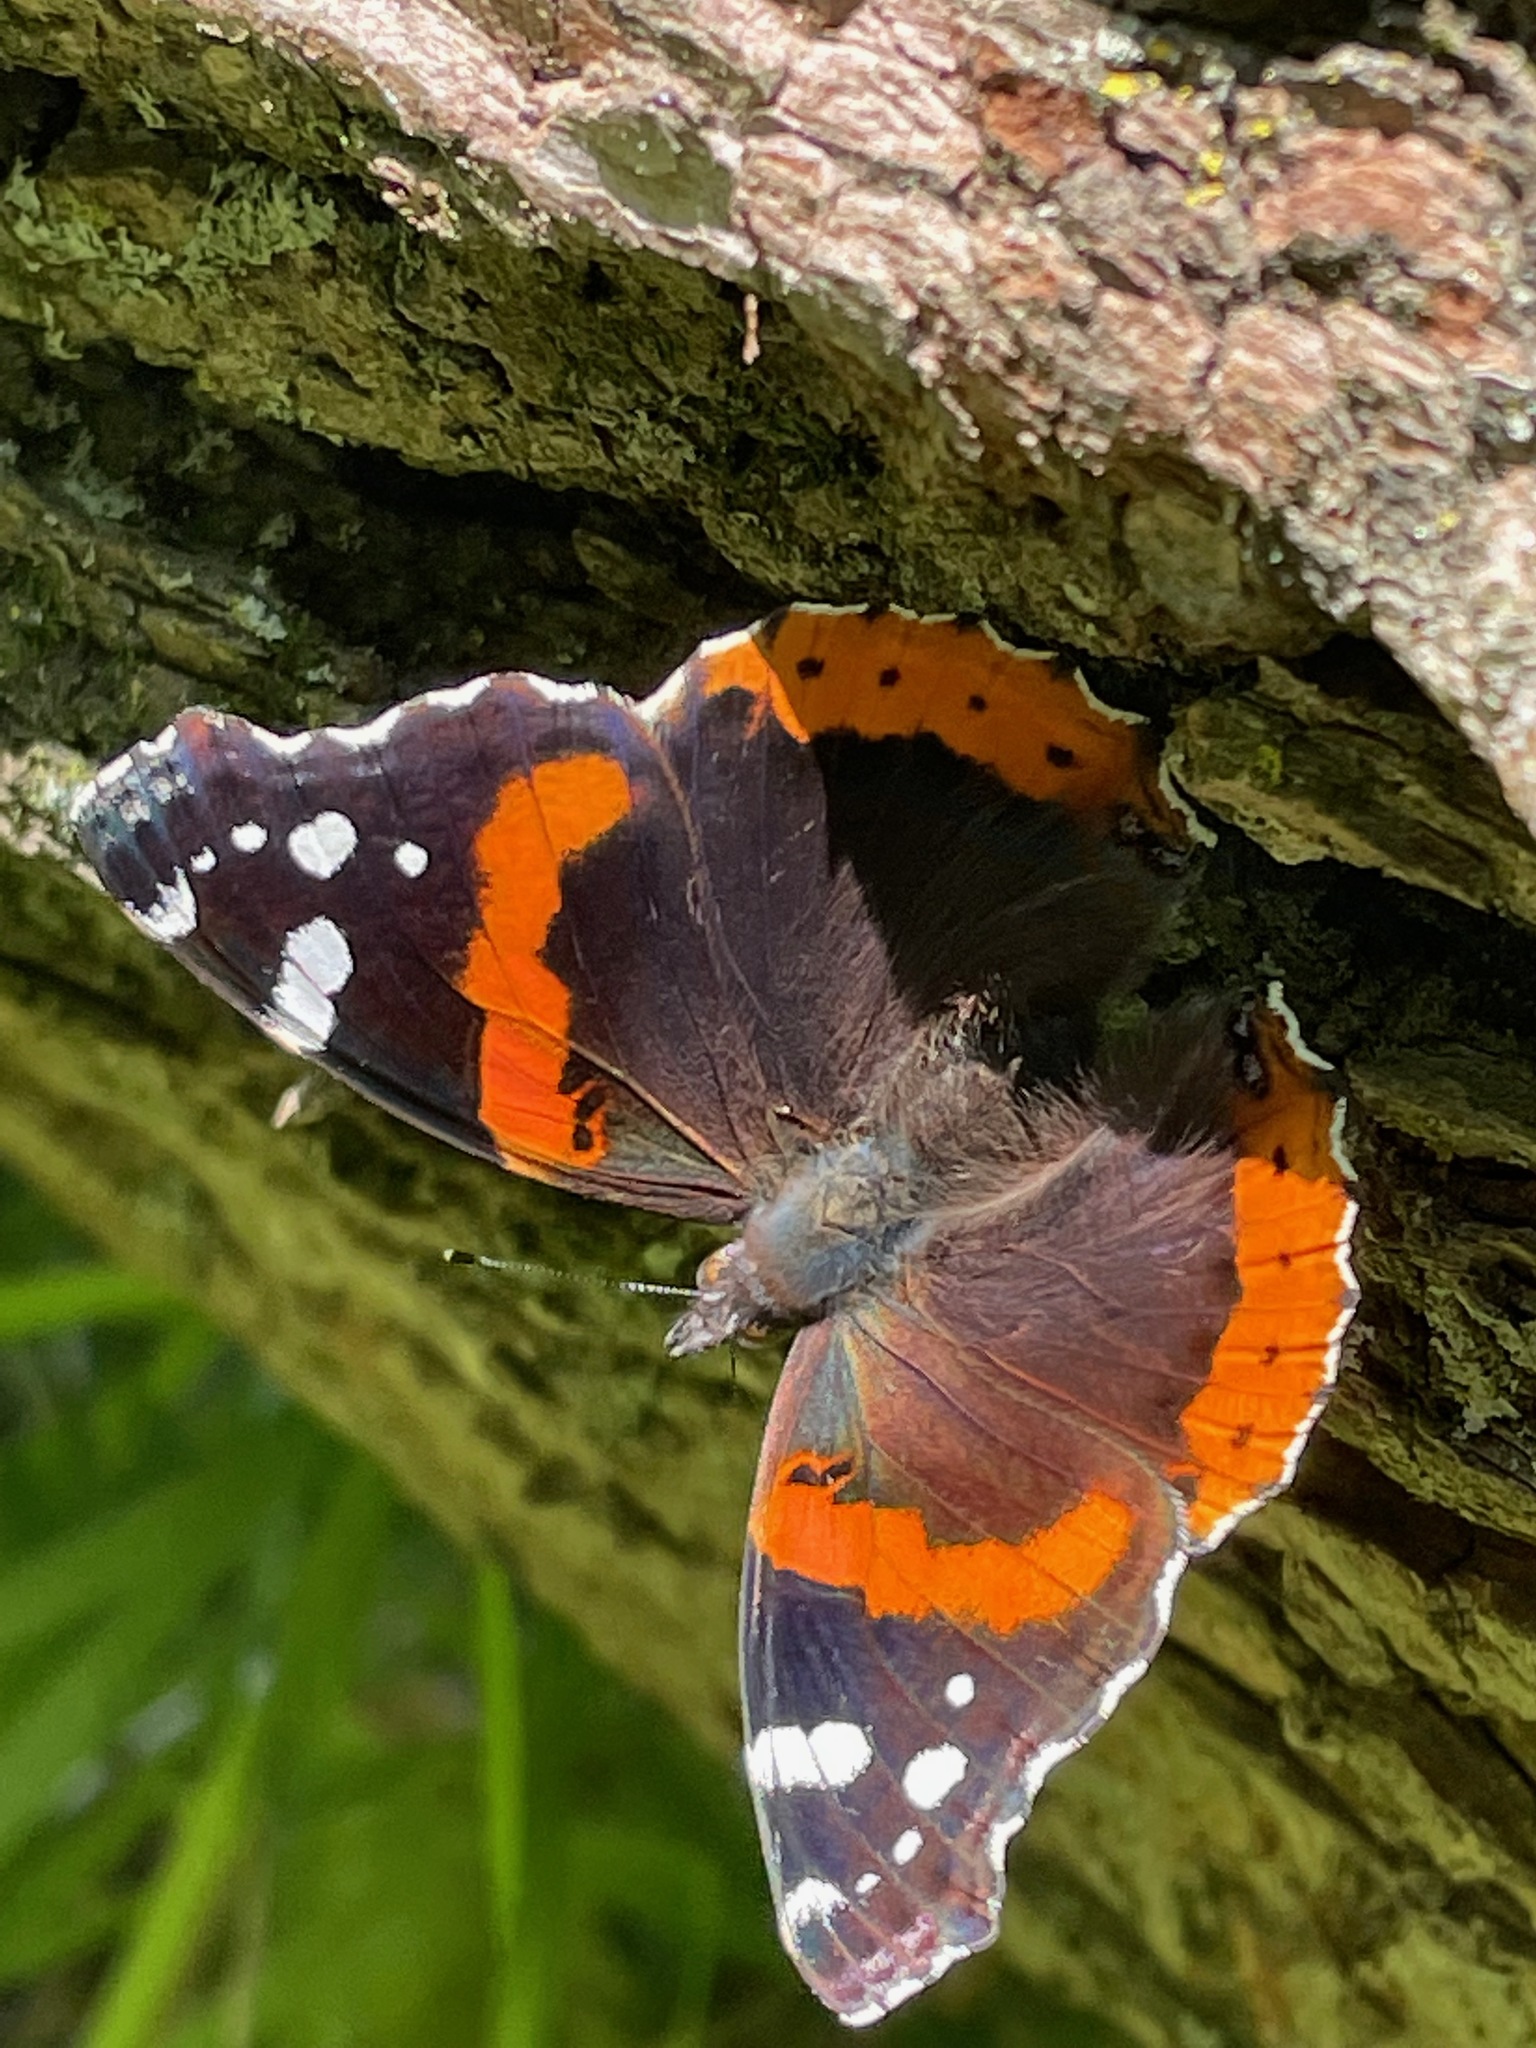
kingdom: Animalia
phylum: Arthropoda
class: Insecta
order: Lepidoptera
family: Nymphalidae
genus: Vanessa
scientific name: Vanessa atalanta
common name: Red admiral
